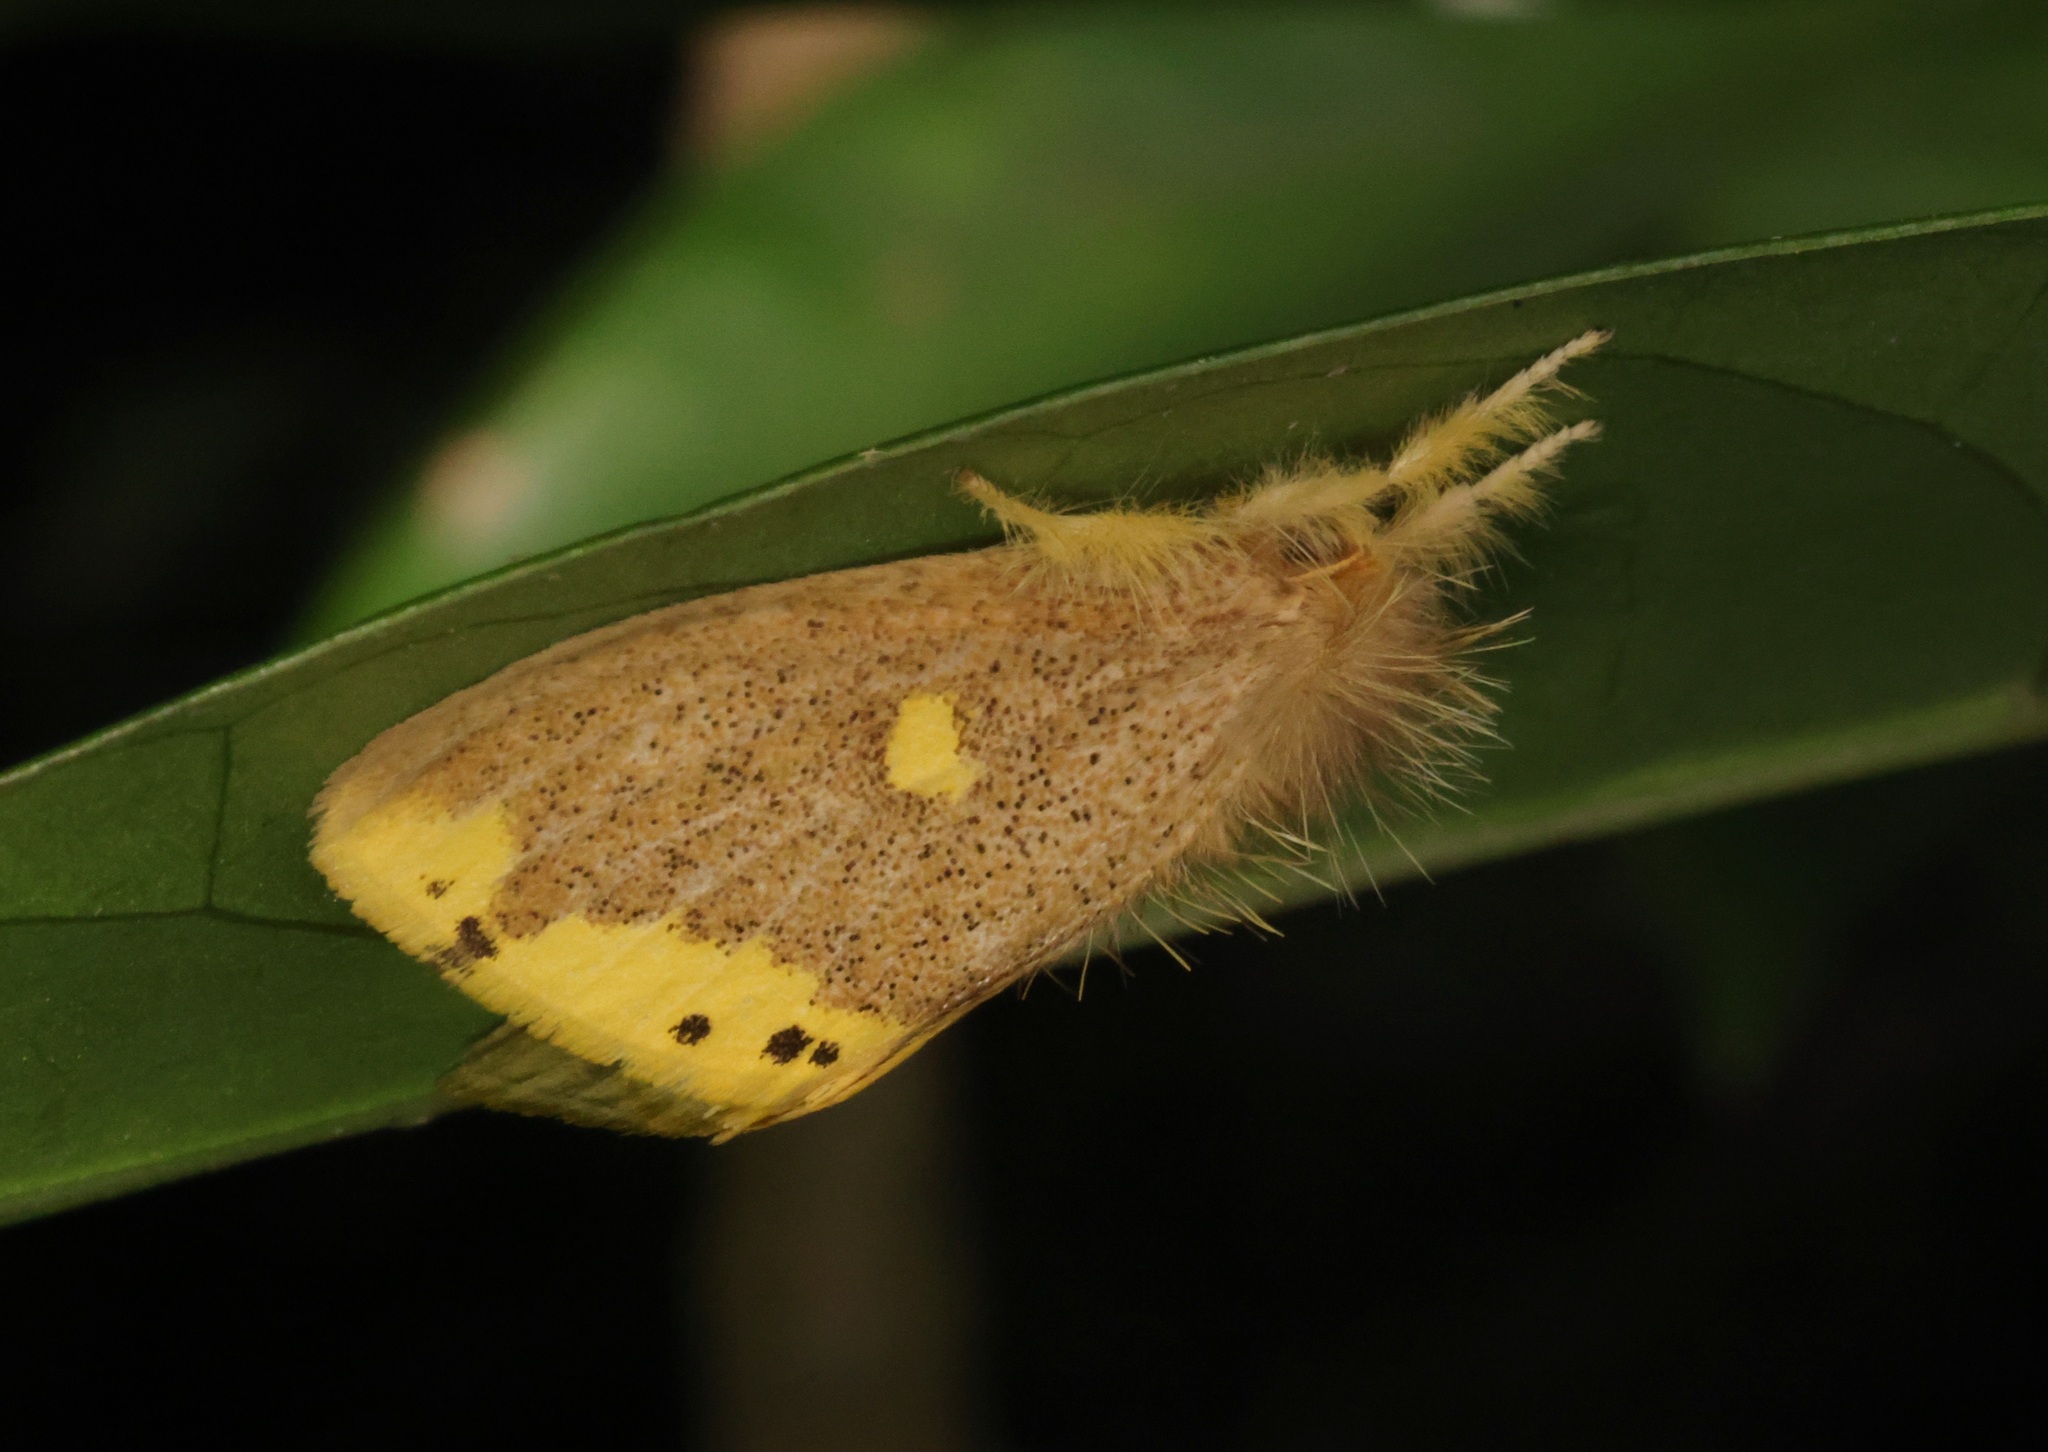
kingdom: Animalia
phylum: Arthropoda
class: Insecta
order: Lepidoptera
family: Erebidae
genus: Euproctis
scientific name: Euproctis quadrangularis
